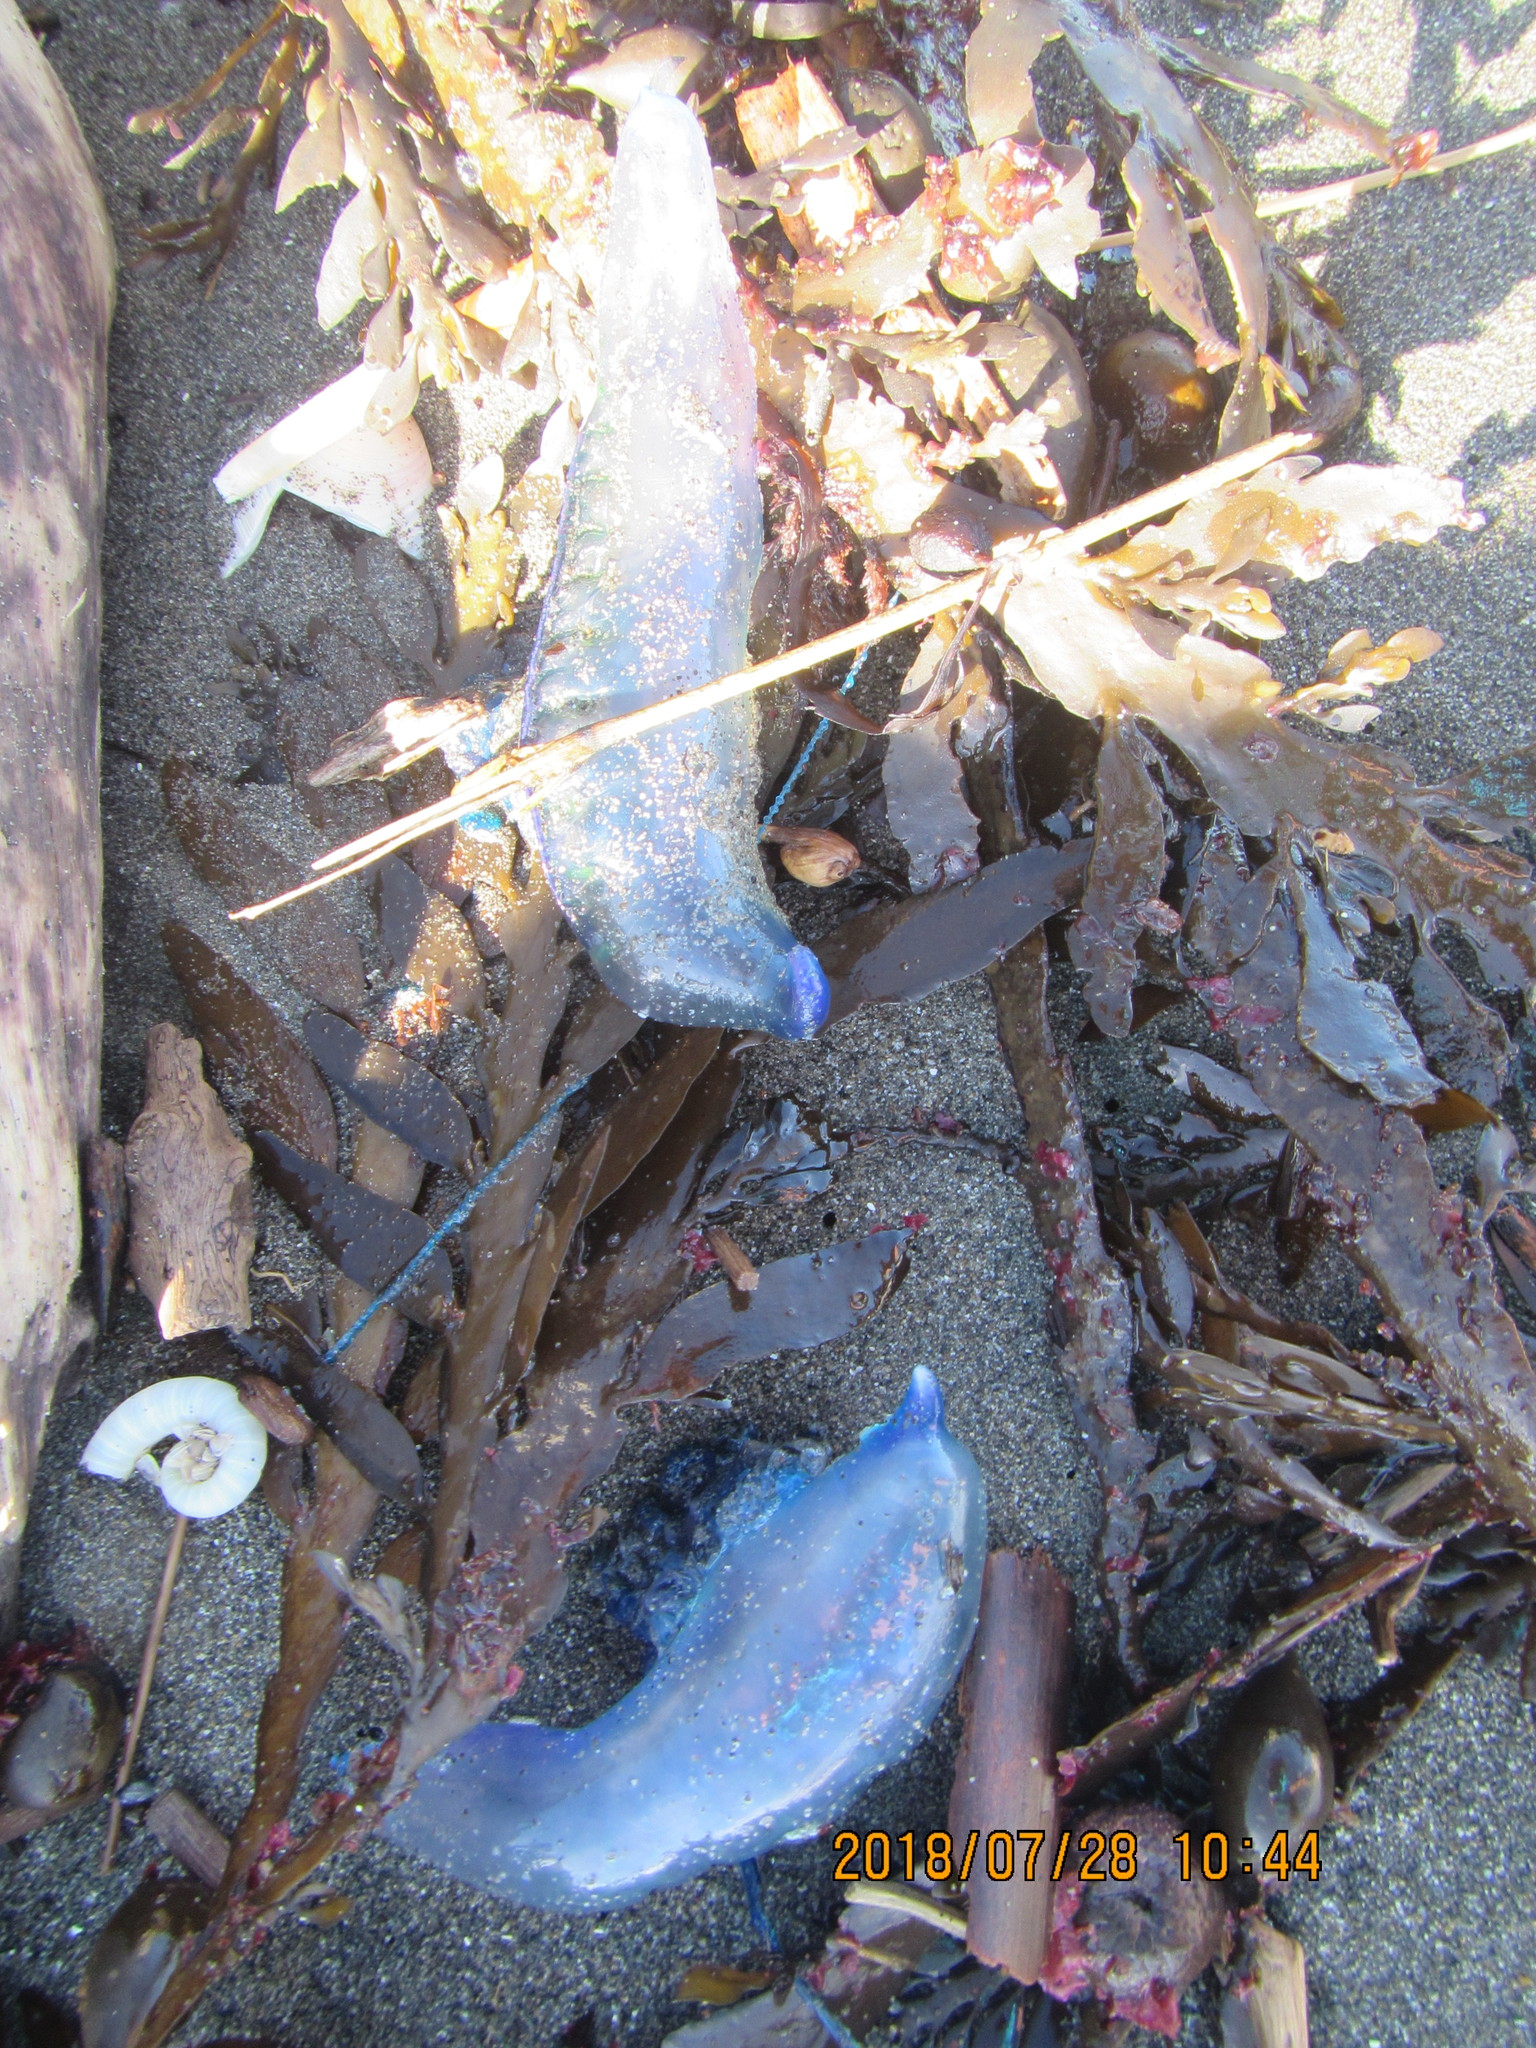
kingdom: Animalia
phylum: Cnidaria
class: Hydrozoa
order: Siphonophorae
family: Physaliidae
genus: Physalia
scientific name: Physalia physalis
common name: Portuguese man-of-war
